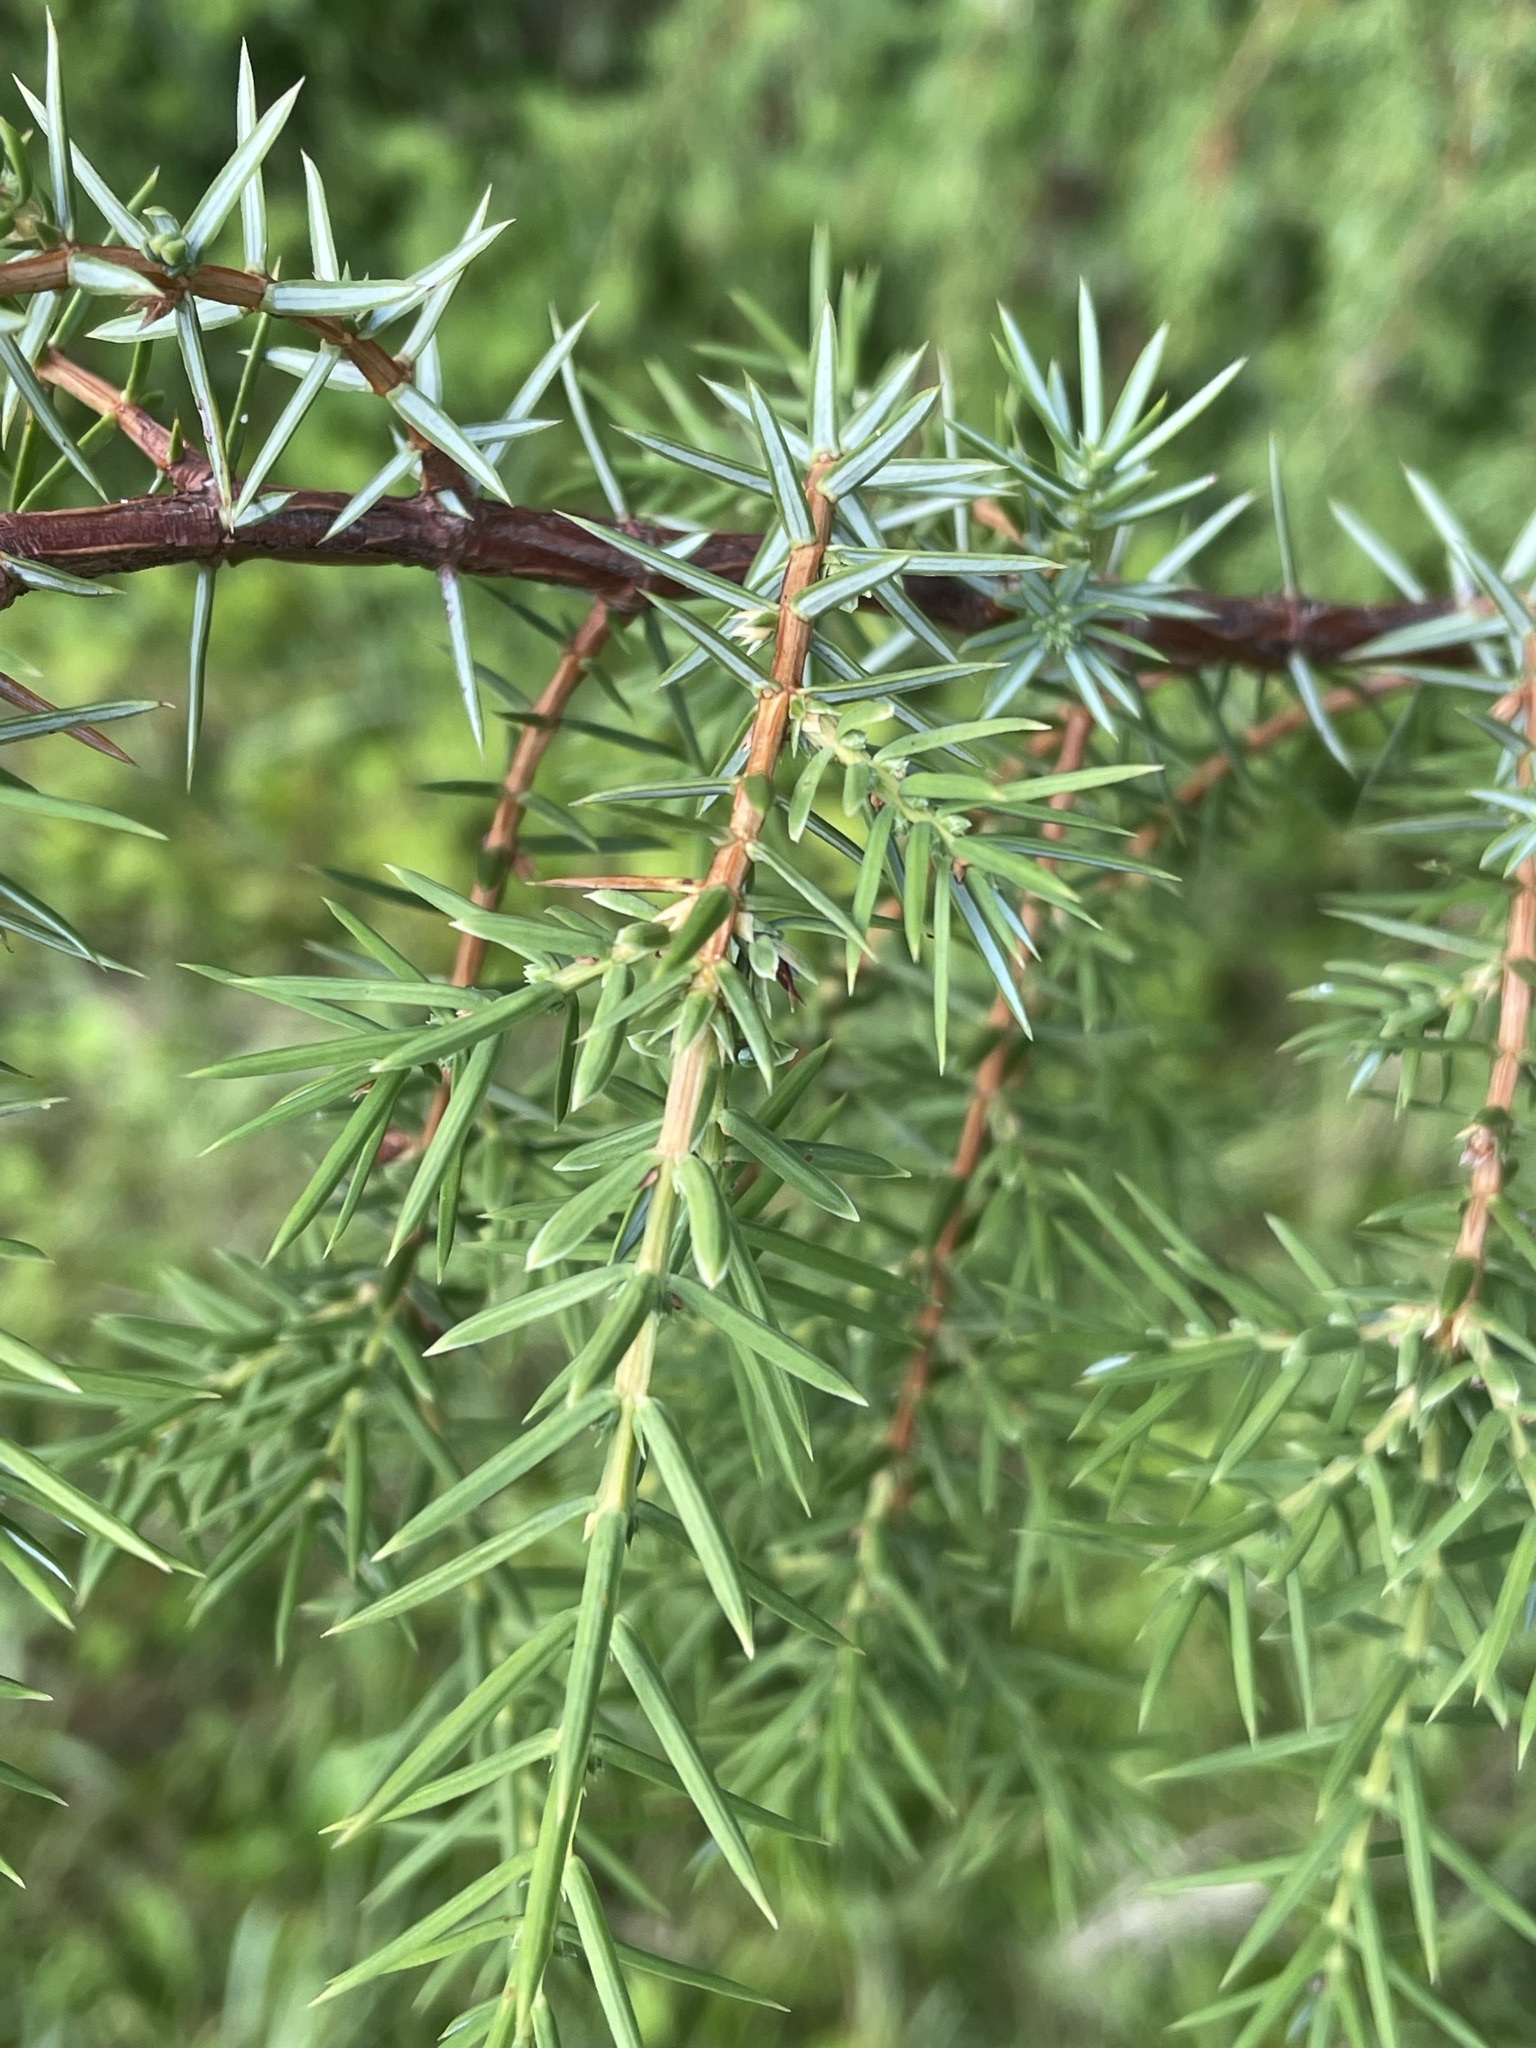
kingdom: Plantae
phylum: Tracheophyta
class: Pinopsida
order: Pinales
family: Cupressaceae
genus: Juniperus
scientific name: Juniperus communis
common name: Common juniper
